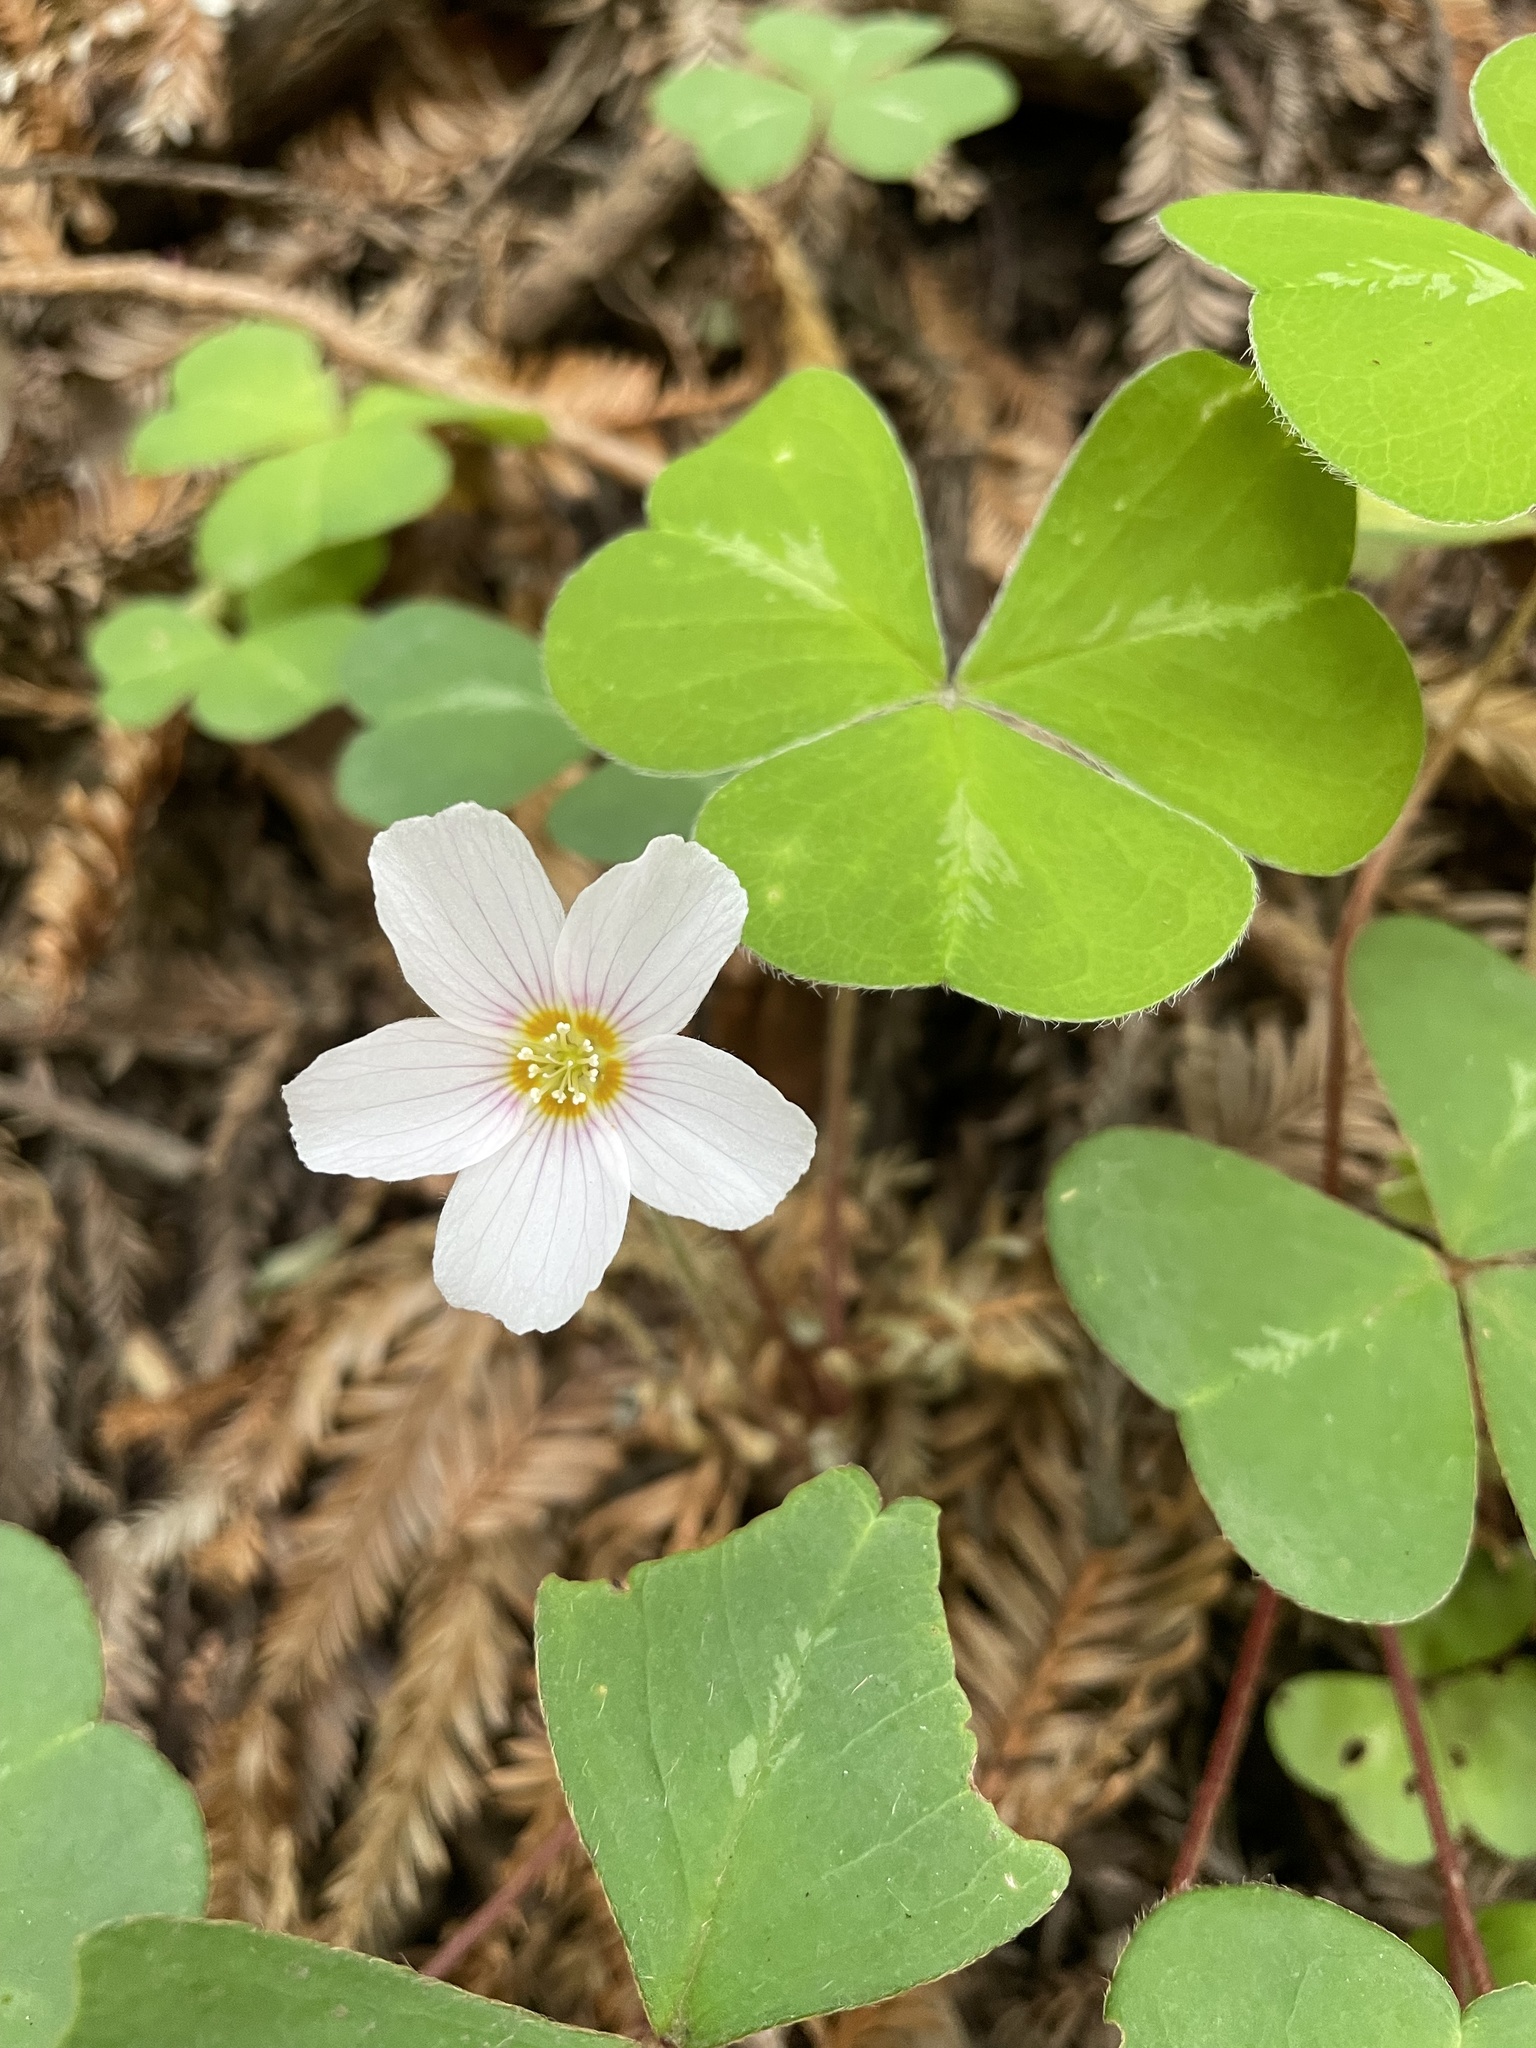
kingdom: Plantae
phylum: Tracheophyta
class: Magnoliopsida
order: Oxalidales
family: Oxalidaceae
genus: Oxalis
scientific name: Oxalis oregana
